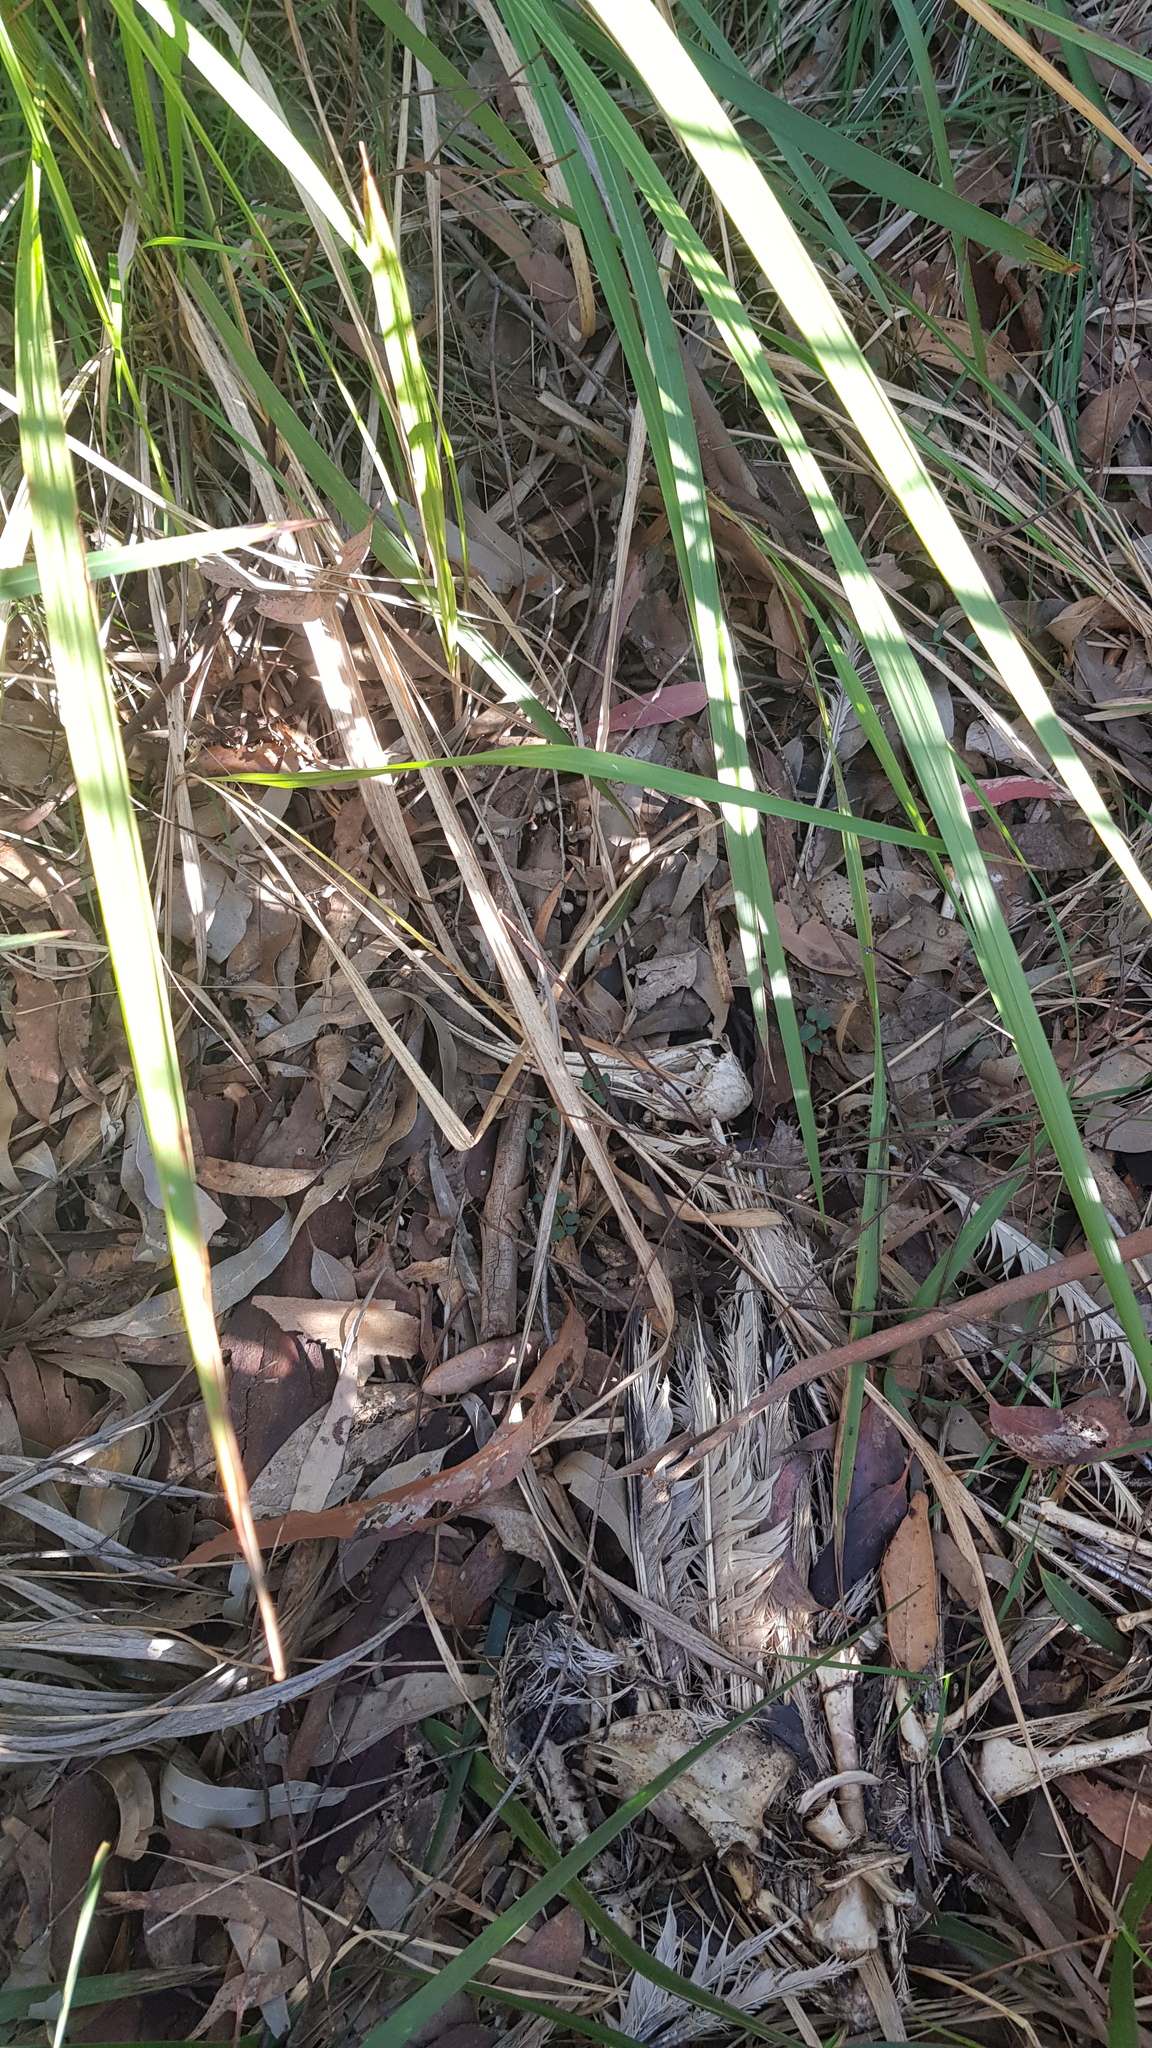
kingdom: Animalia
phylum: Chordata
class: Aves
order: Pelecaniformes
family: Threskiornithidae
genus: Threskiornis
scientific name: Threskiornis molucca
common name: Australian white ibis
